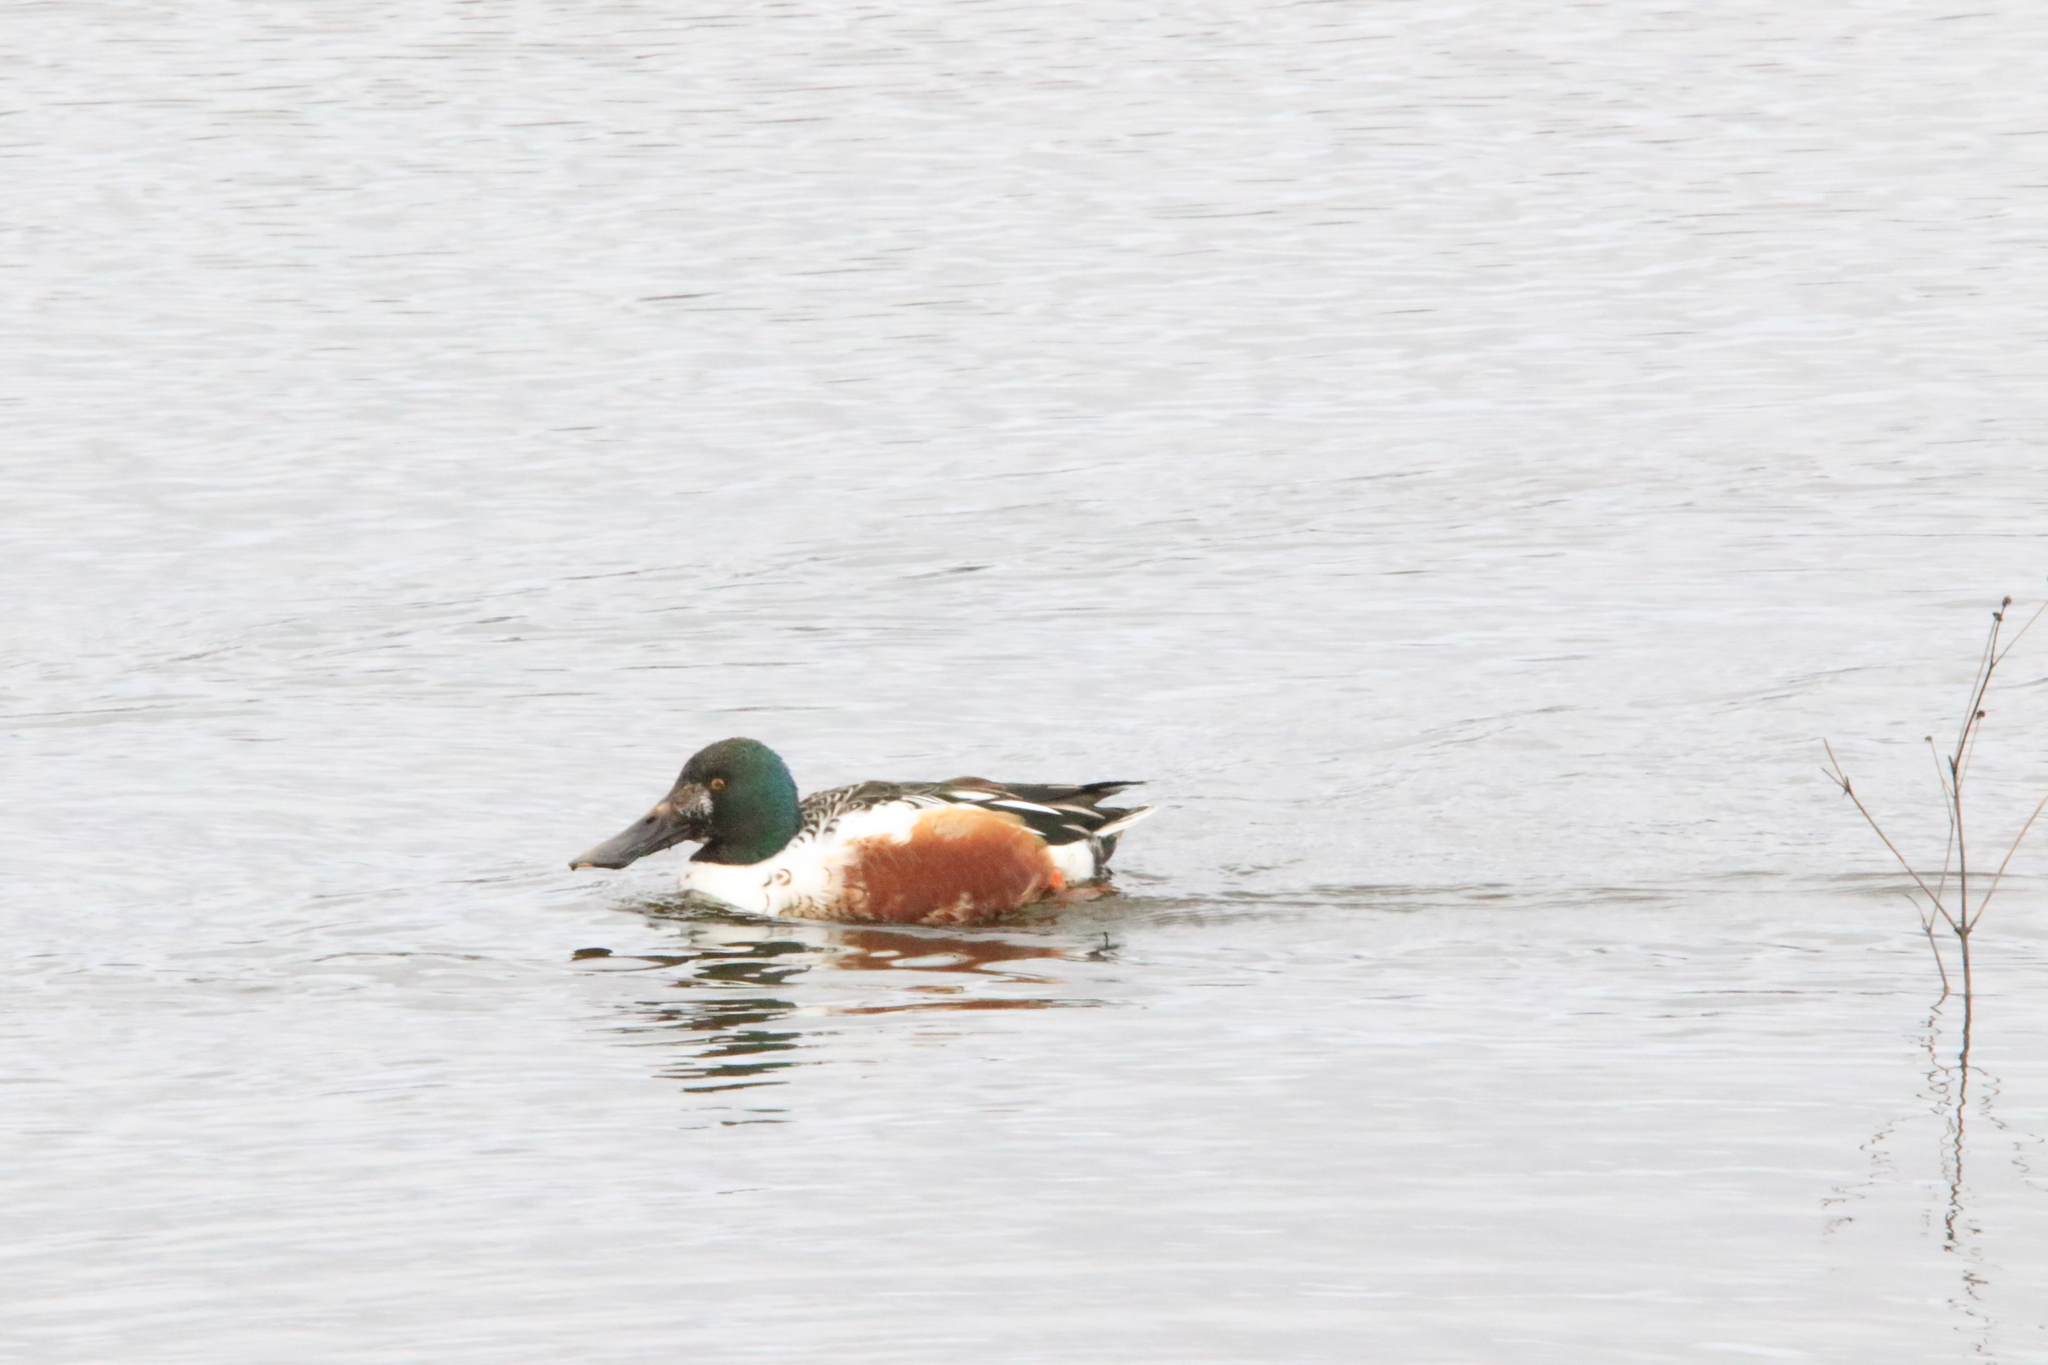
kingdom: Animalia
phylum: Chordata
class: Aves
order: Anseriformes
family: Anatidae
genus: Spatula
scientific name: Spatula clypeata
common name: Northern shoveler
